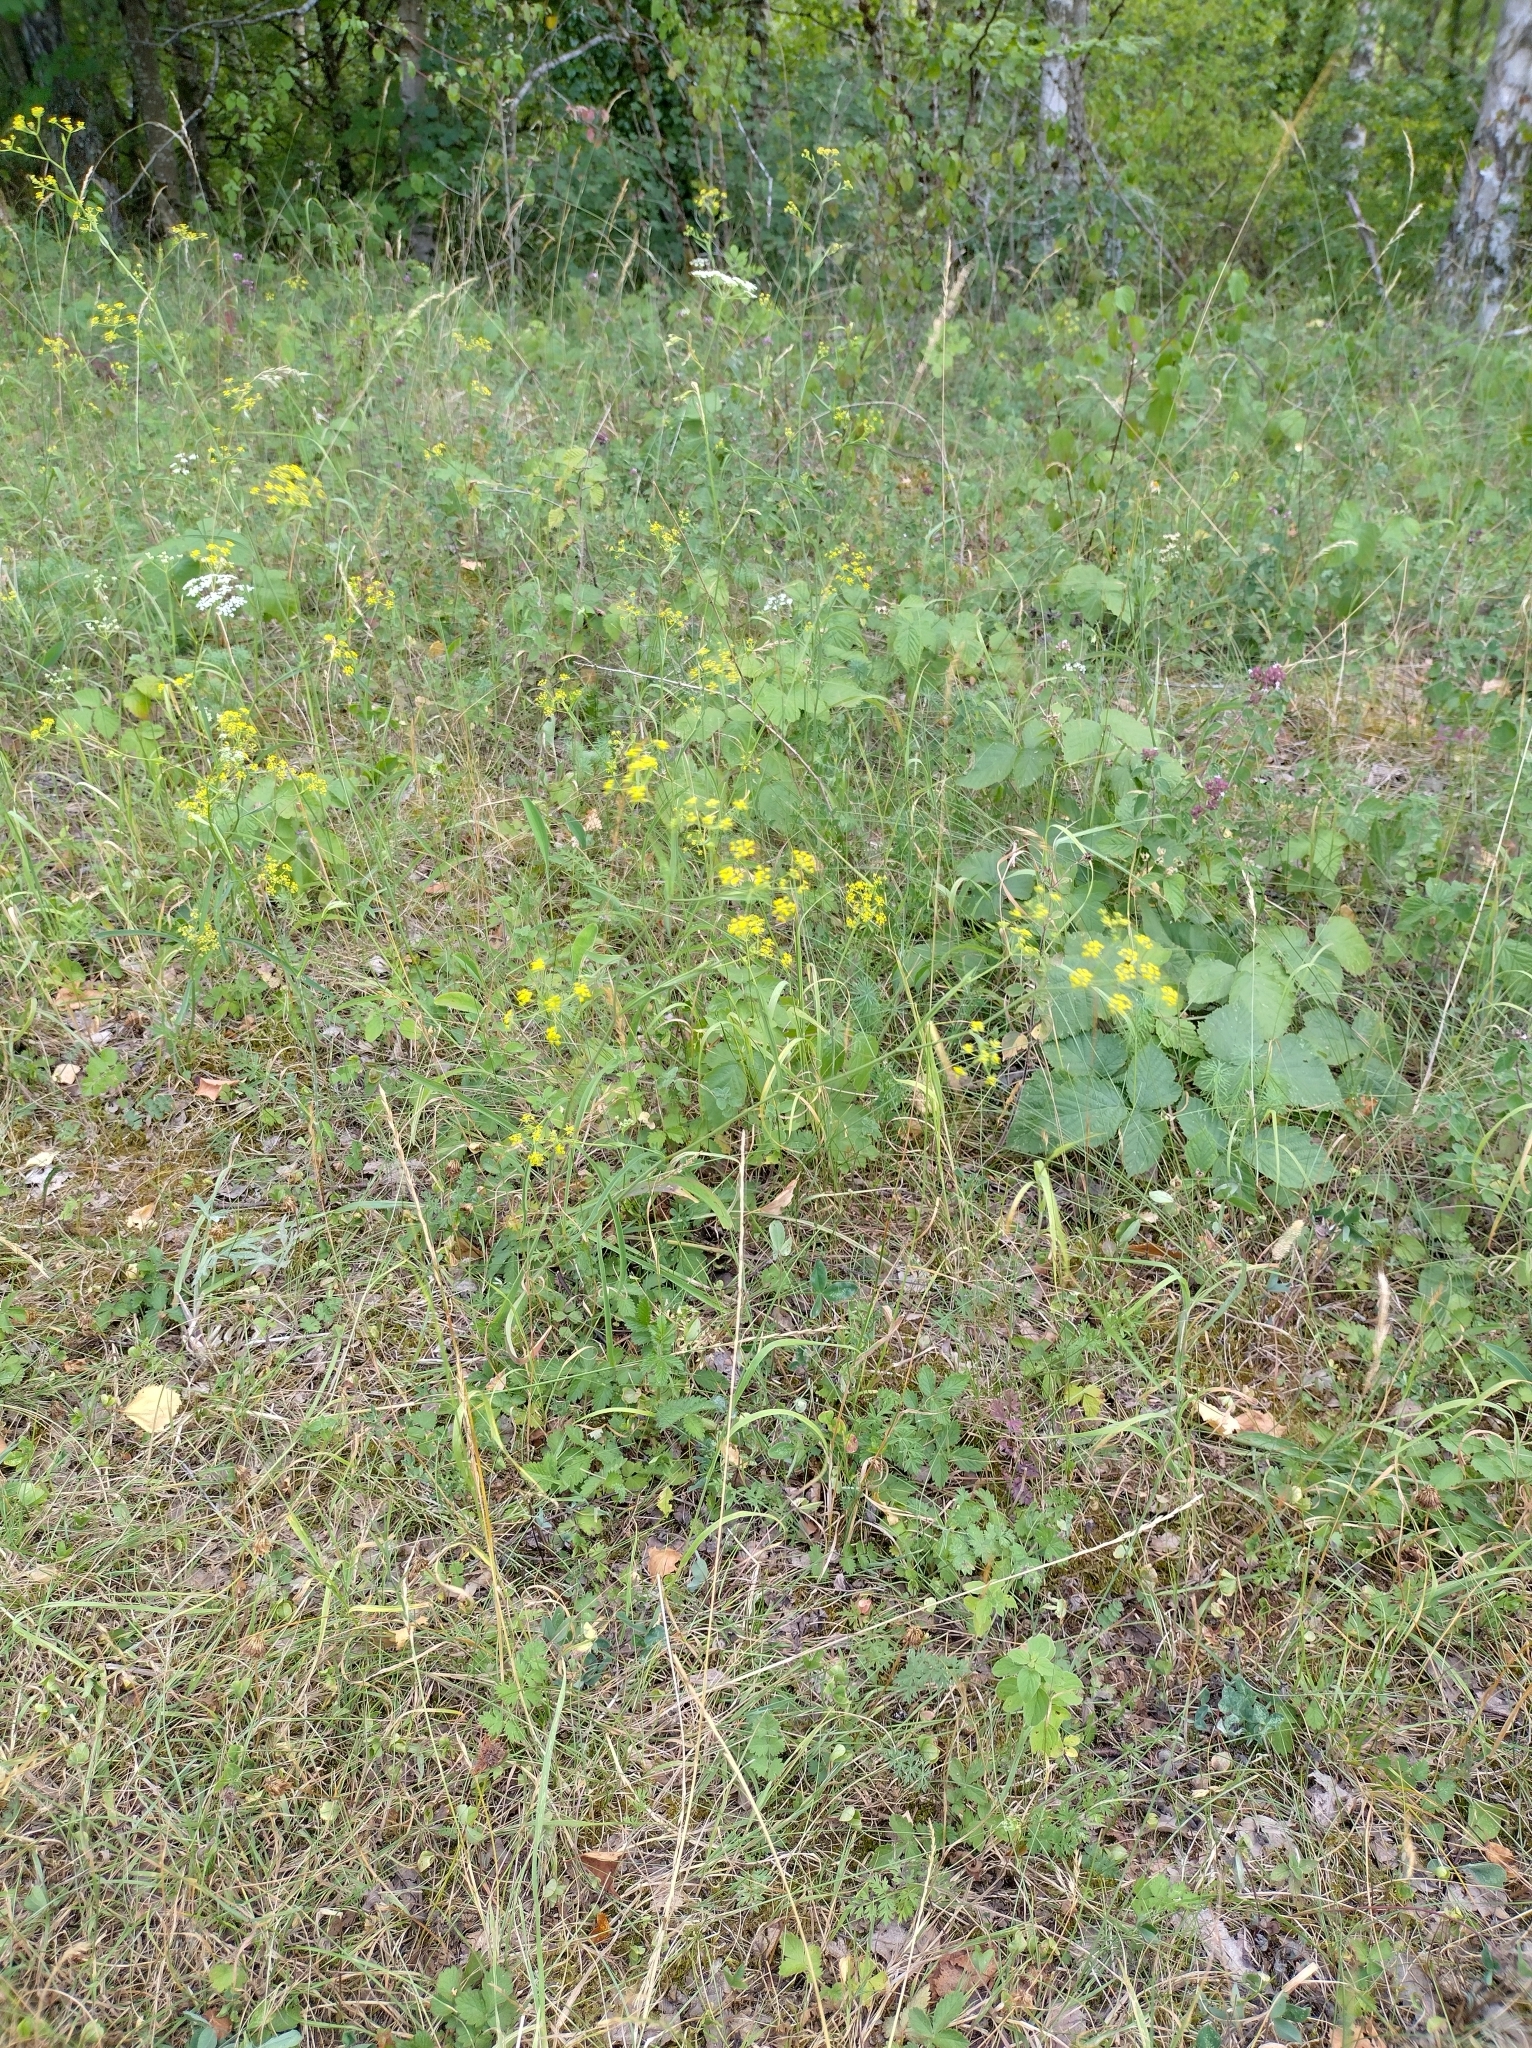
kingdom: Plantae
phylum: Tracheophyta
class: Magnoliopsida
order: Apiales
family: Apiaceae
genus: Bupleurum
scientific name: Bupleurum falcatum
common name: Sickle-leaved hare's-ear
